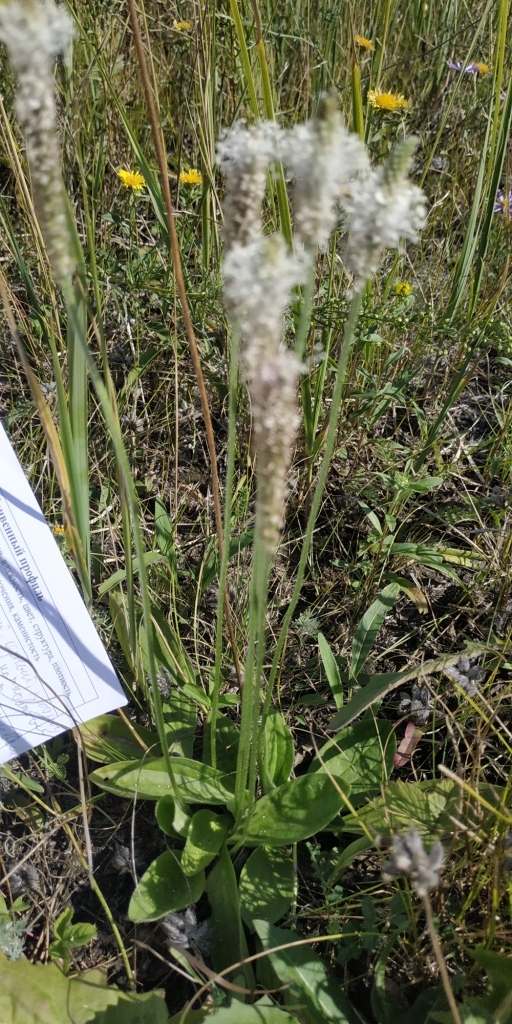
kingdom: Plantae
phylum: Tracheophyta
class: Magnoliopsida
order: Lamiales
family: Plantaginaceae
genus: Plantago
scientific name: Plantago media
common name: Hoary plantain
